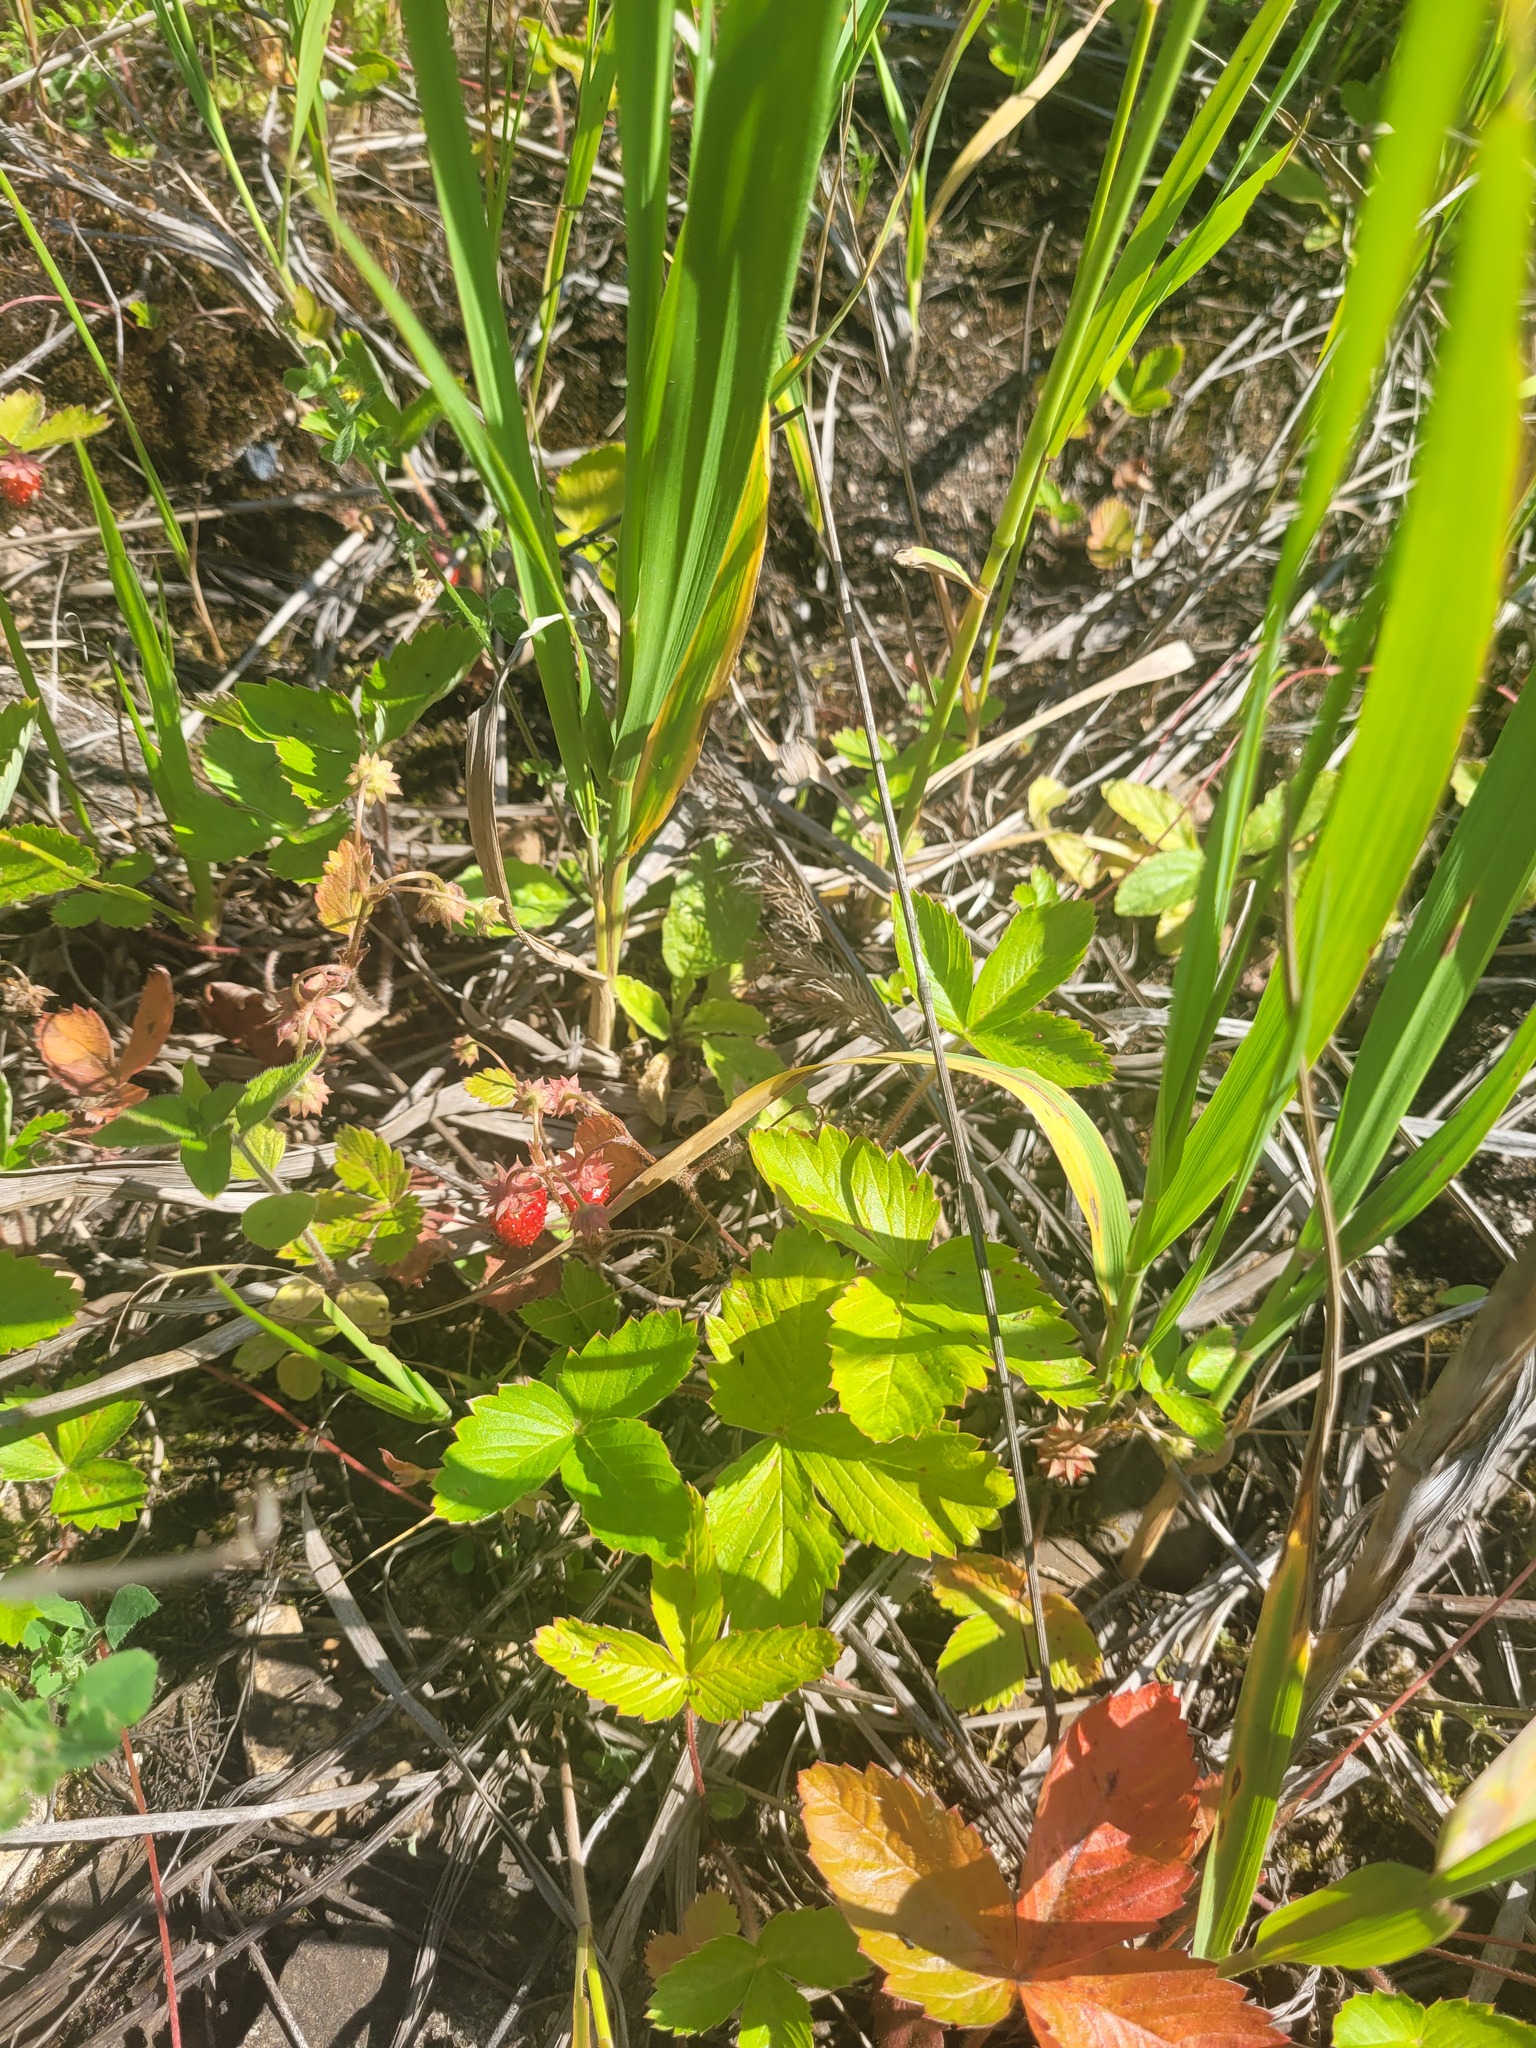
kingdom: Plantae
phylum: Tracheophyta
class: Magnoliopsida
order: Rosales
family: Rosaceae
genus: Fragaria
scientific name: Fragaria vesca
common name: Wild strawberry
